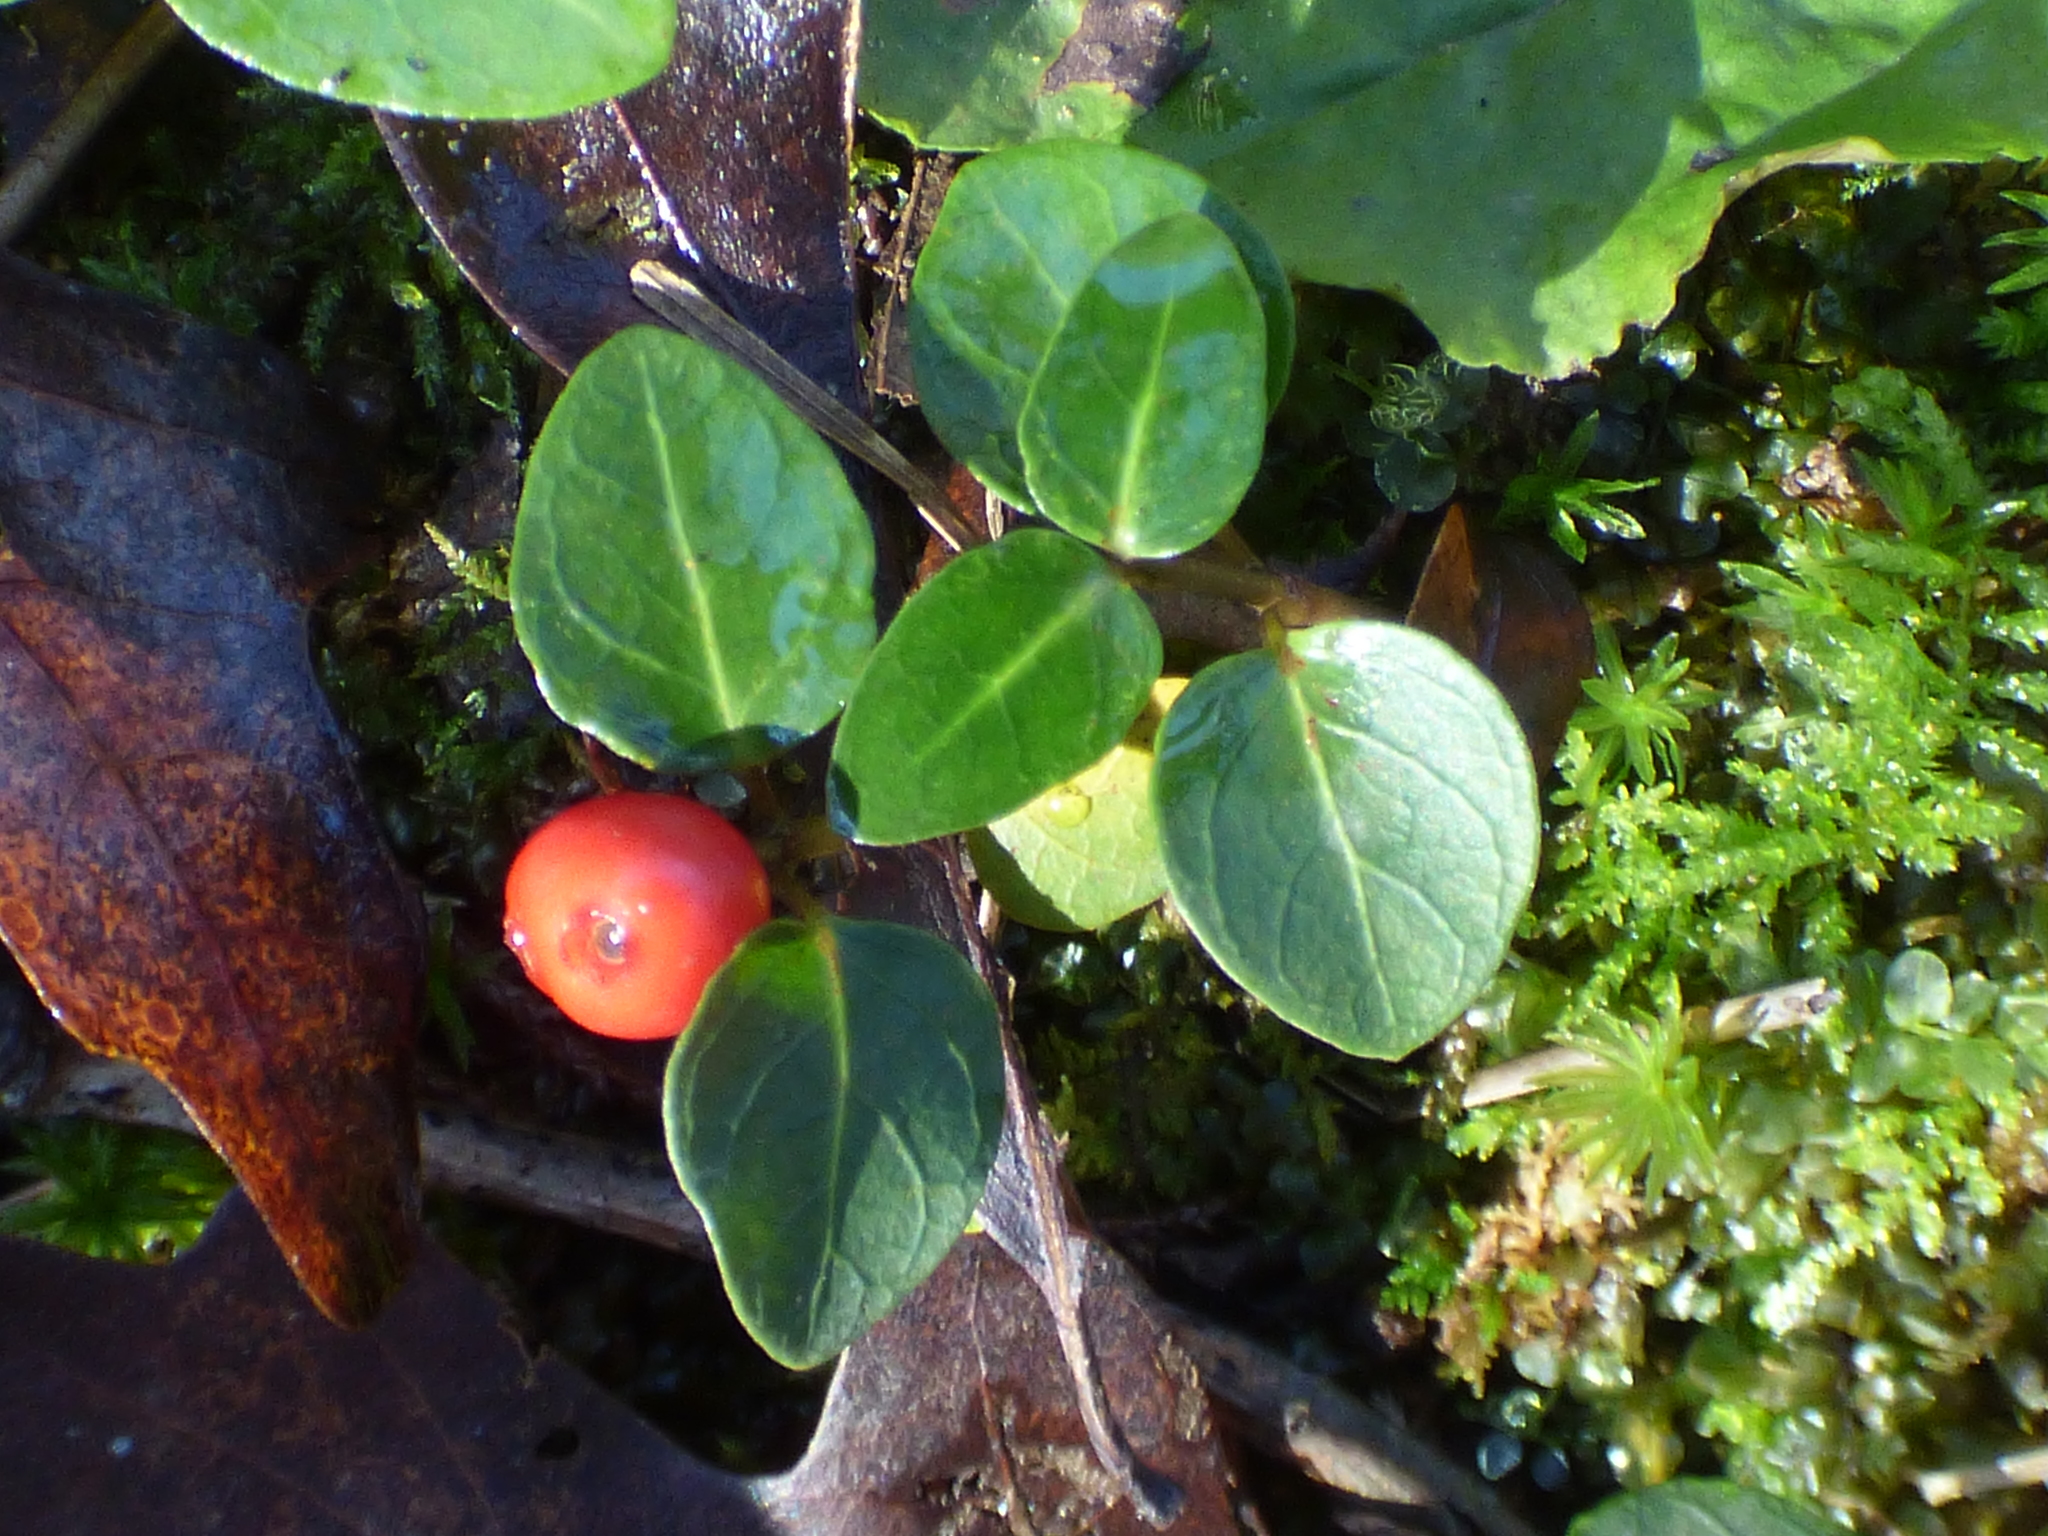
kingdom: Plantae
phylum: Tracheophyta
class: Magnoliopsida
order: Gentianales
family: Rubiaceae
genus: Mitchella
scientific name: Mitchella repens
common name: Partridge-berry
